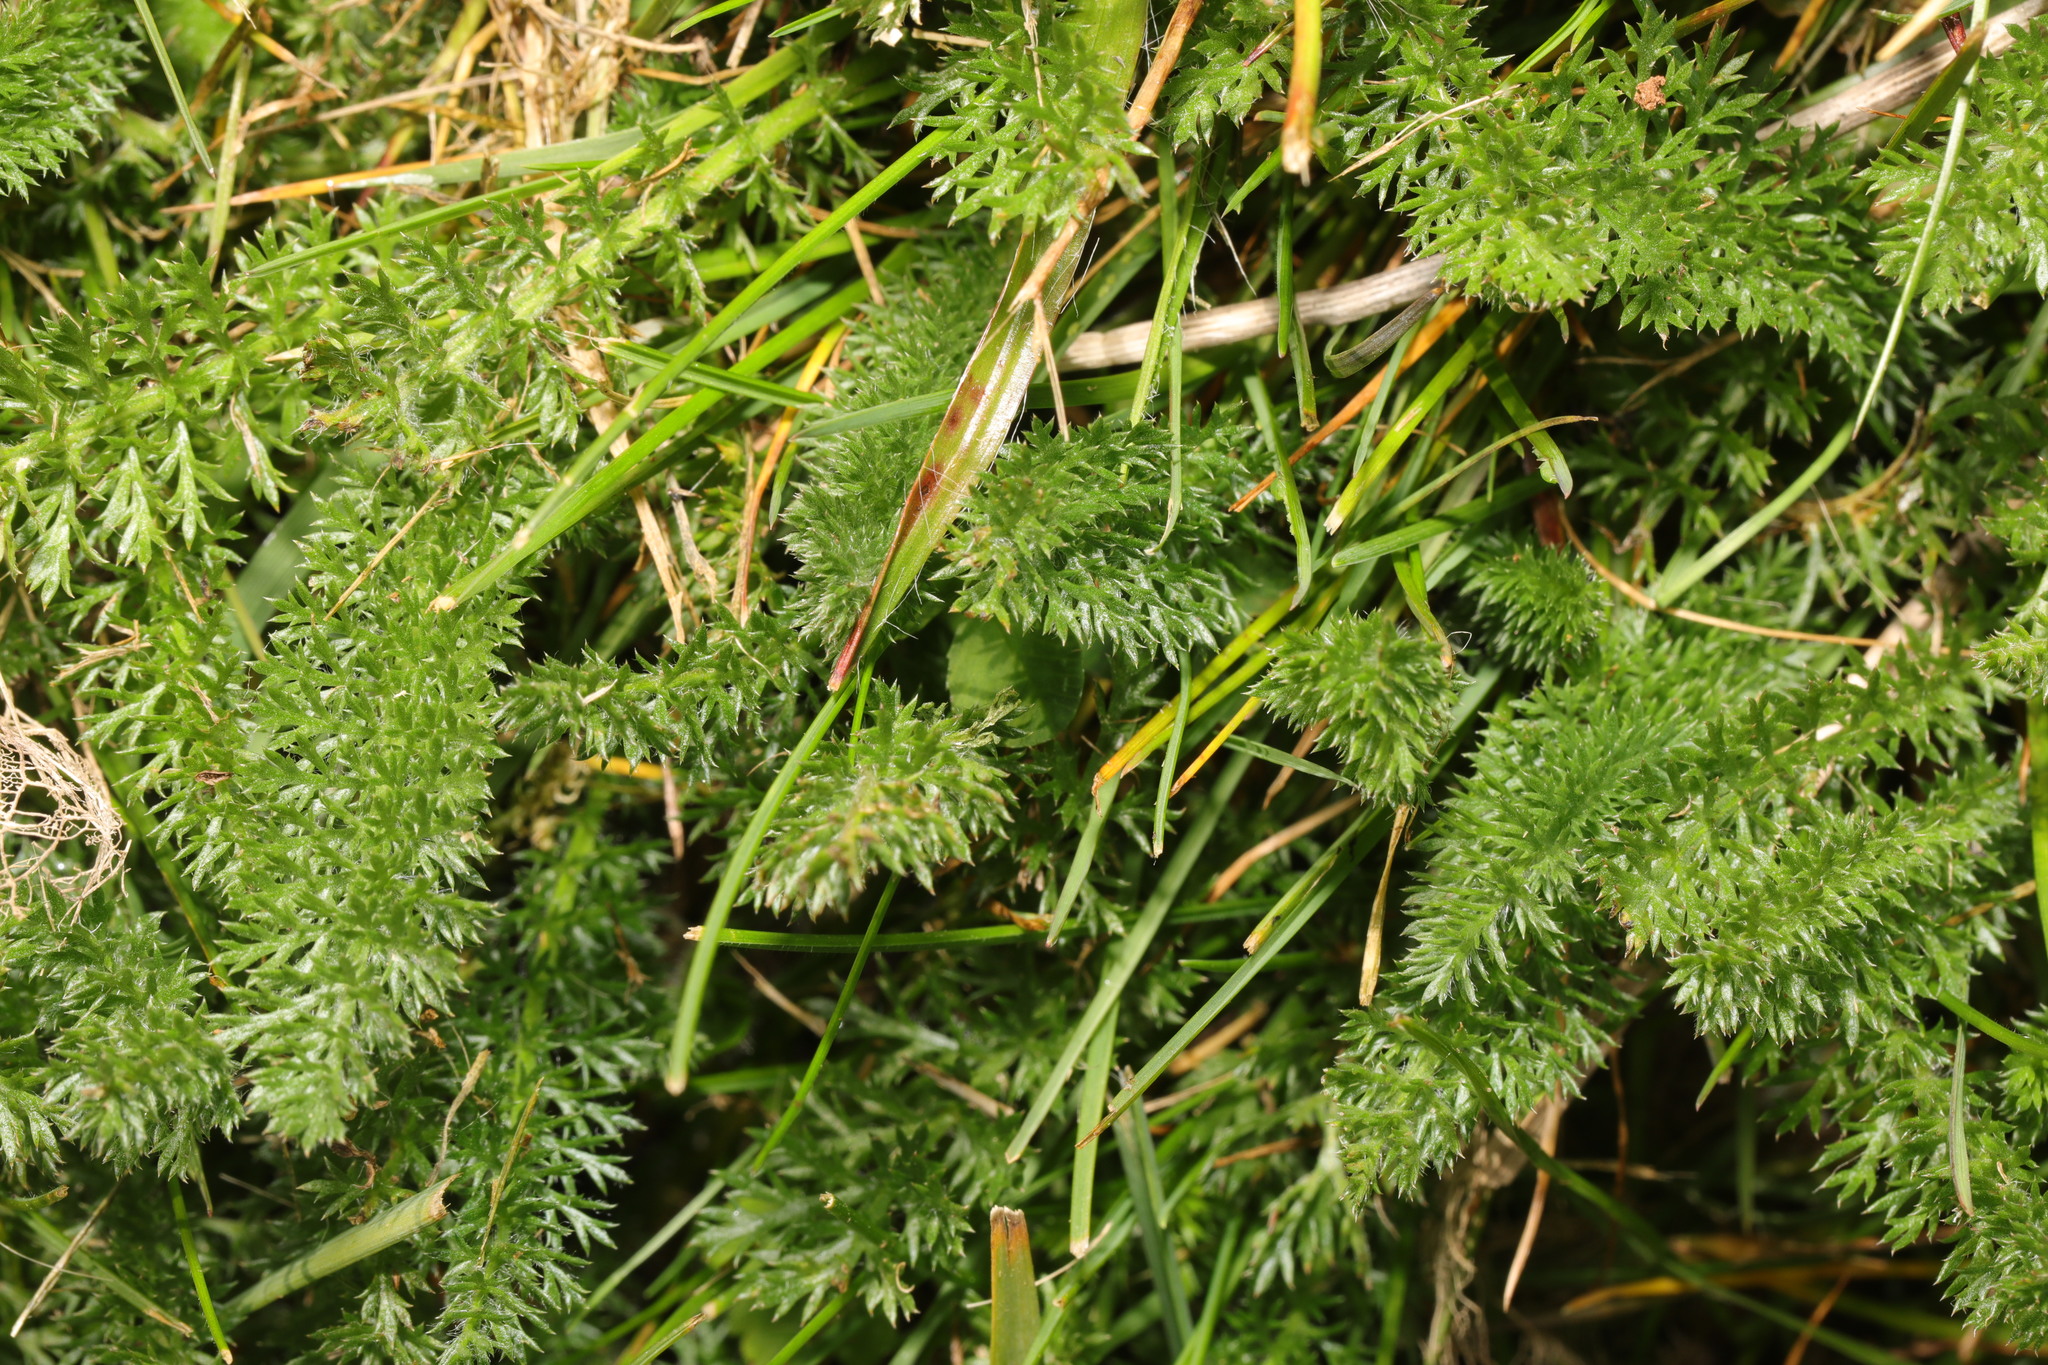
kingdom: Plantae
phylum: Tracheophyta
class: Magnoliopsida
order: Asterales
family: Asteraceae
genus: Achillea
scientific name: Achillea millefolium
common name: Yarrow
